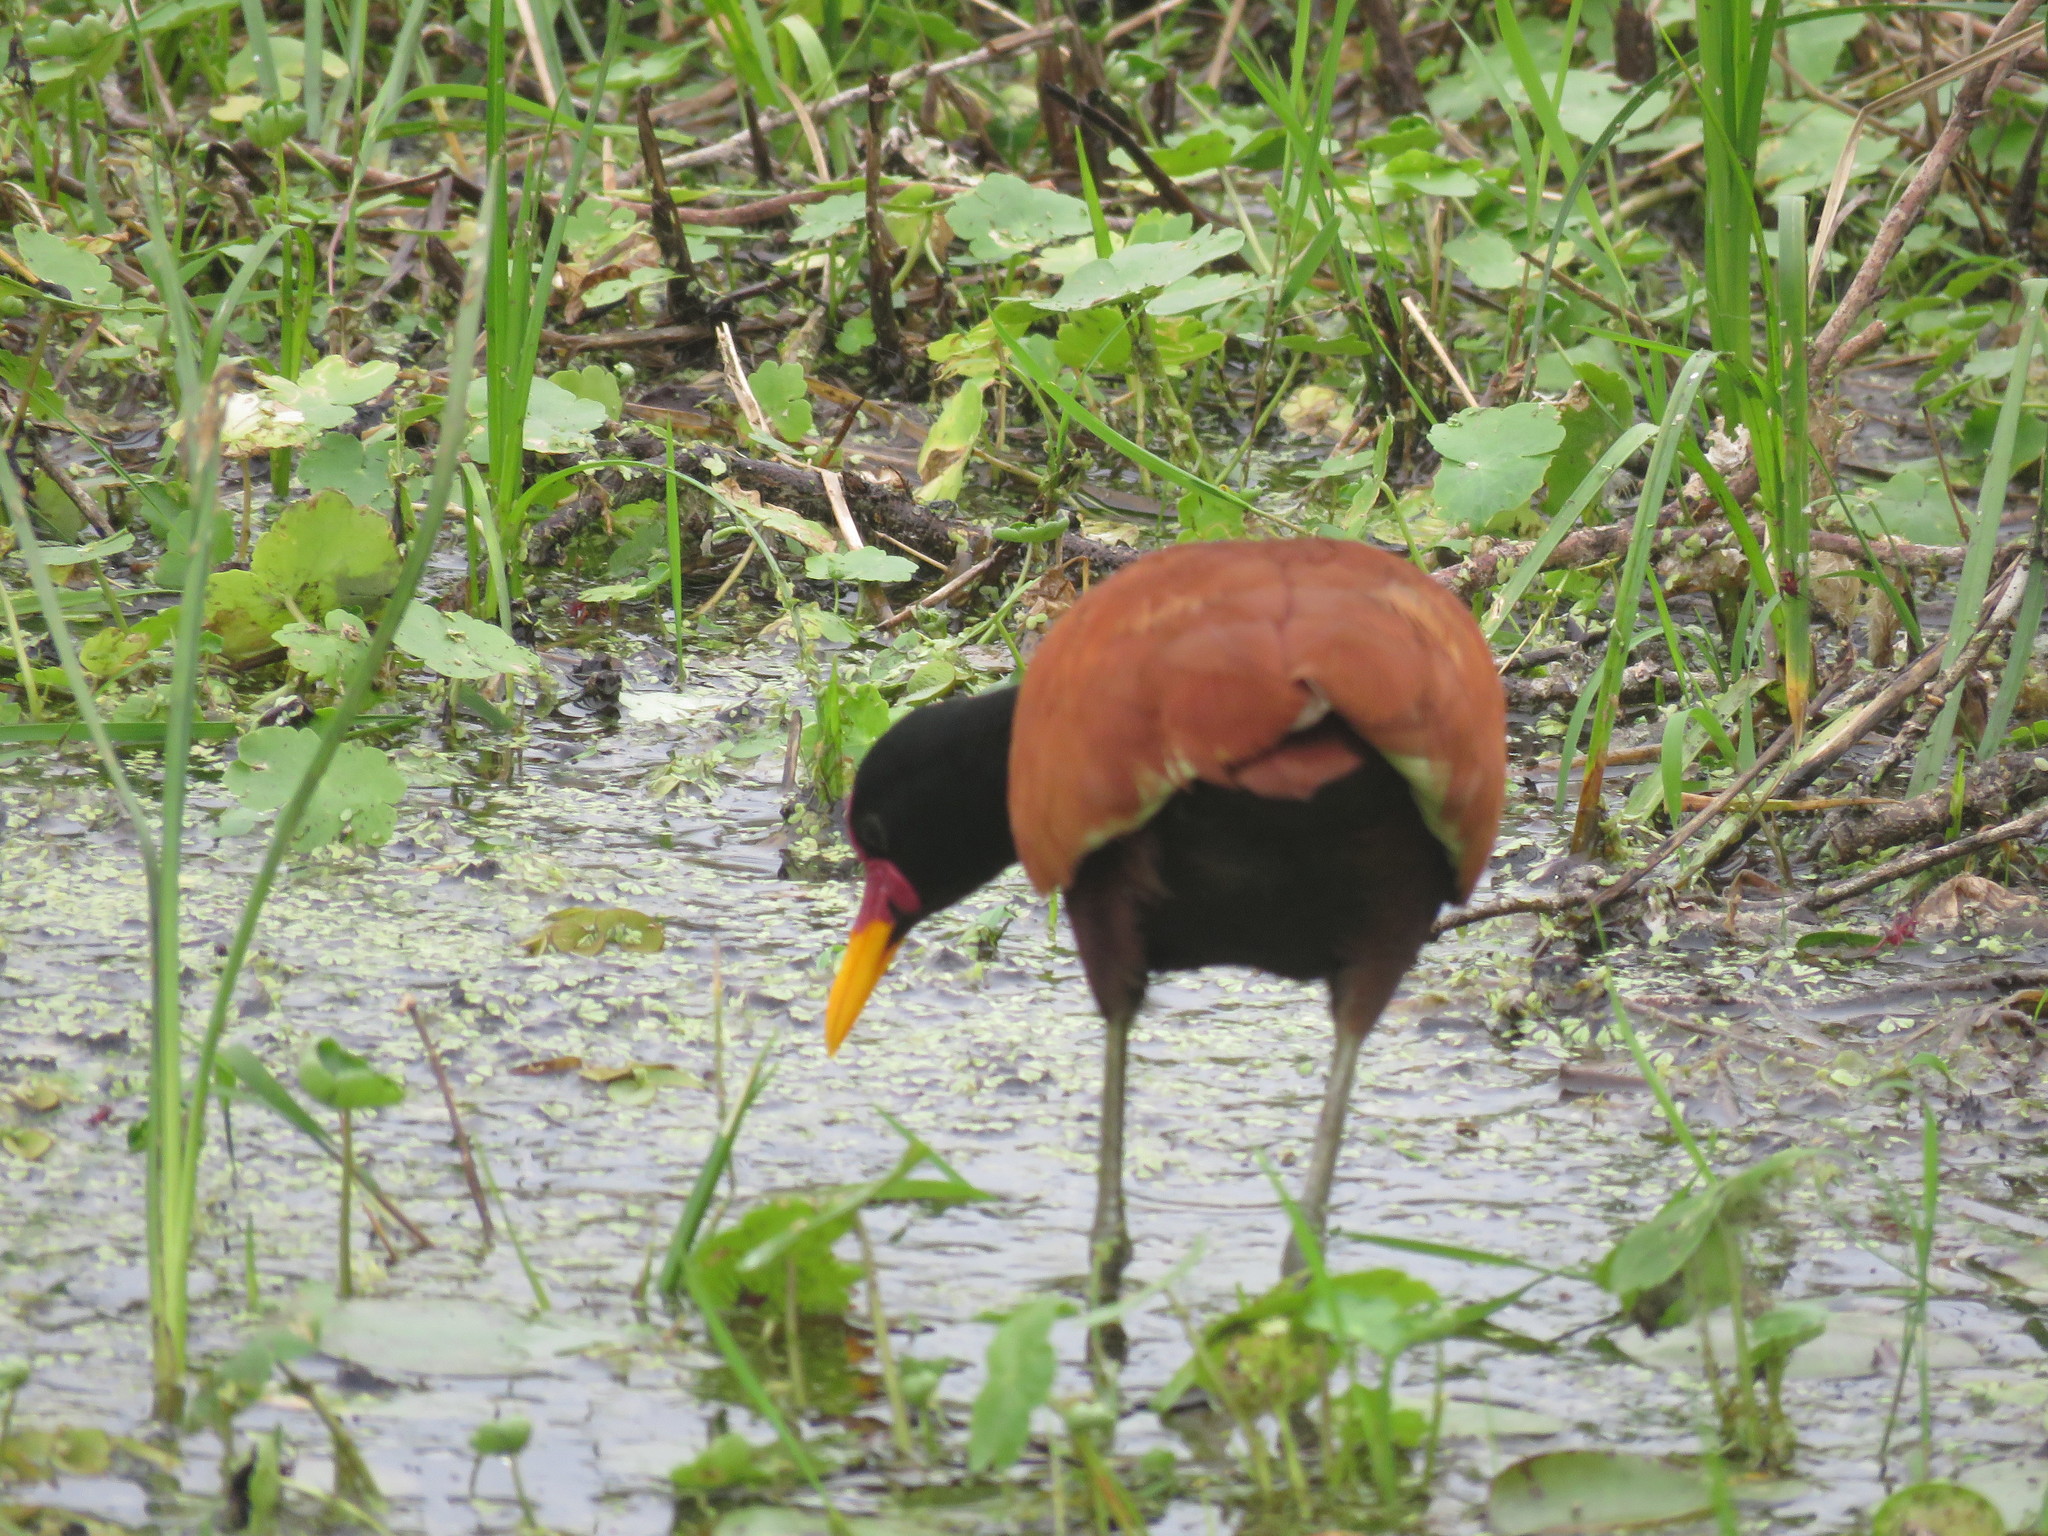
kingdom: Animalia
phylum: Chordata
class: Aves
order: Charadriiformes
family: Jacanidae
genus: Jacana
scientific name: Jacana jacana
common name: Wattled jacana
